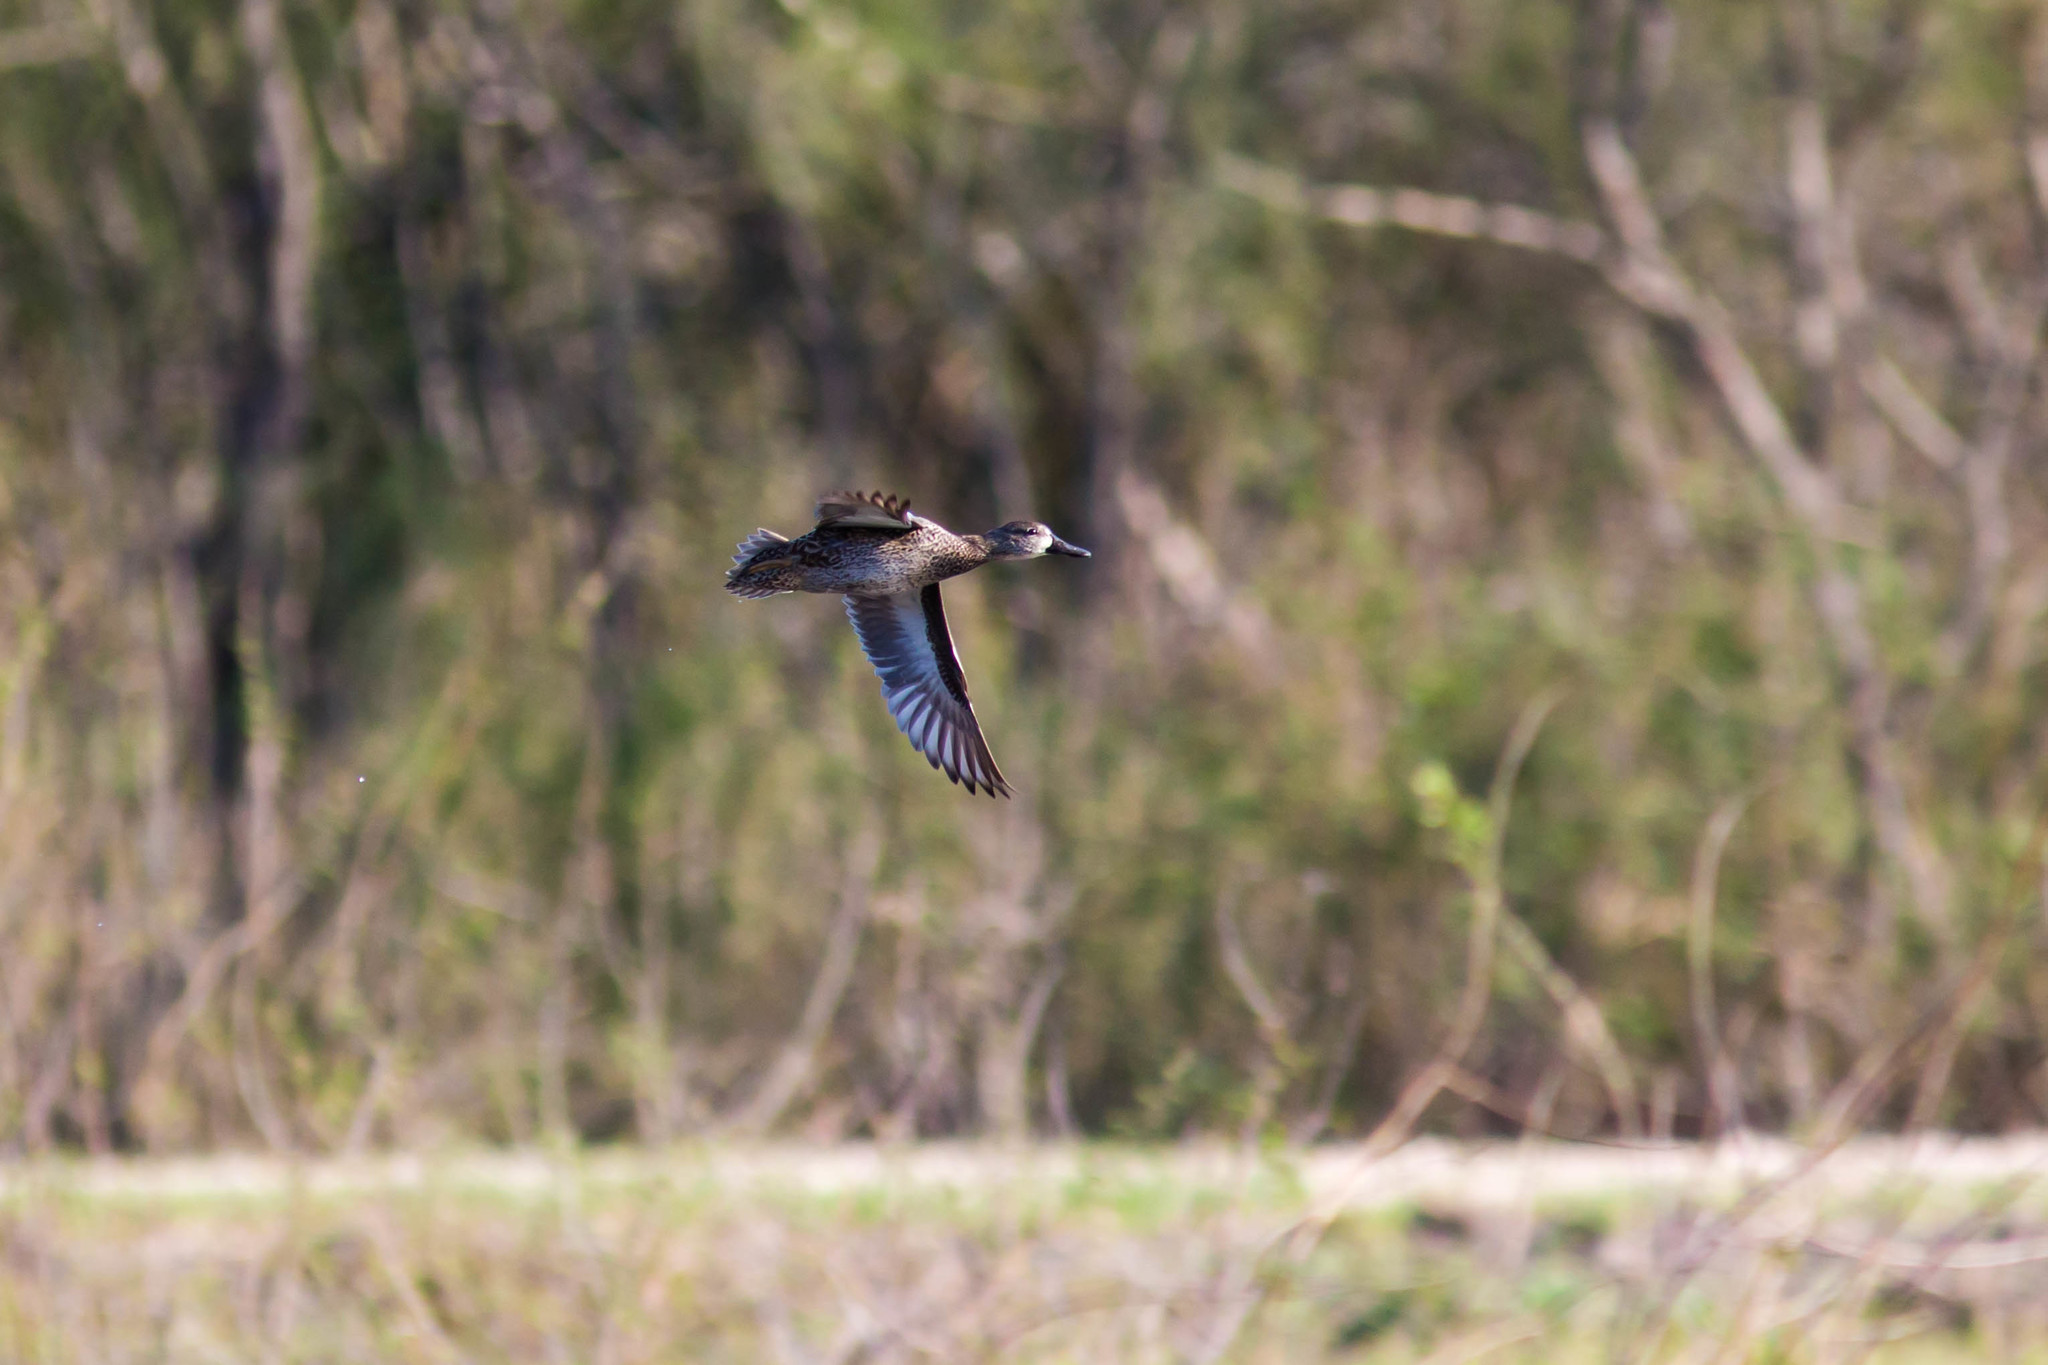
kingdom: Animalia
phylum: Chordata
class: Aves
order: Anseriformes
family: Anatidae
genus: Spatula
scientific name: Spatula discors
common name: Blue-winged teal
